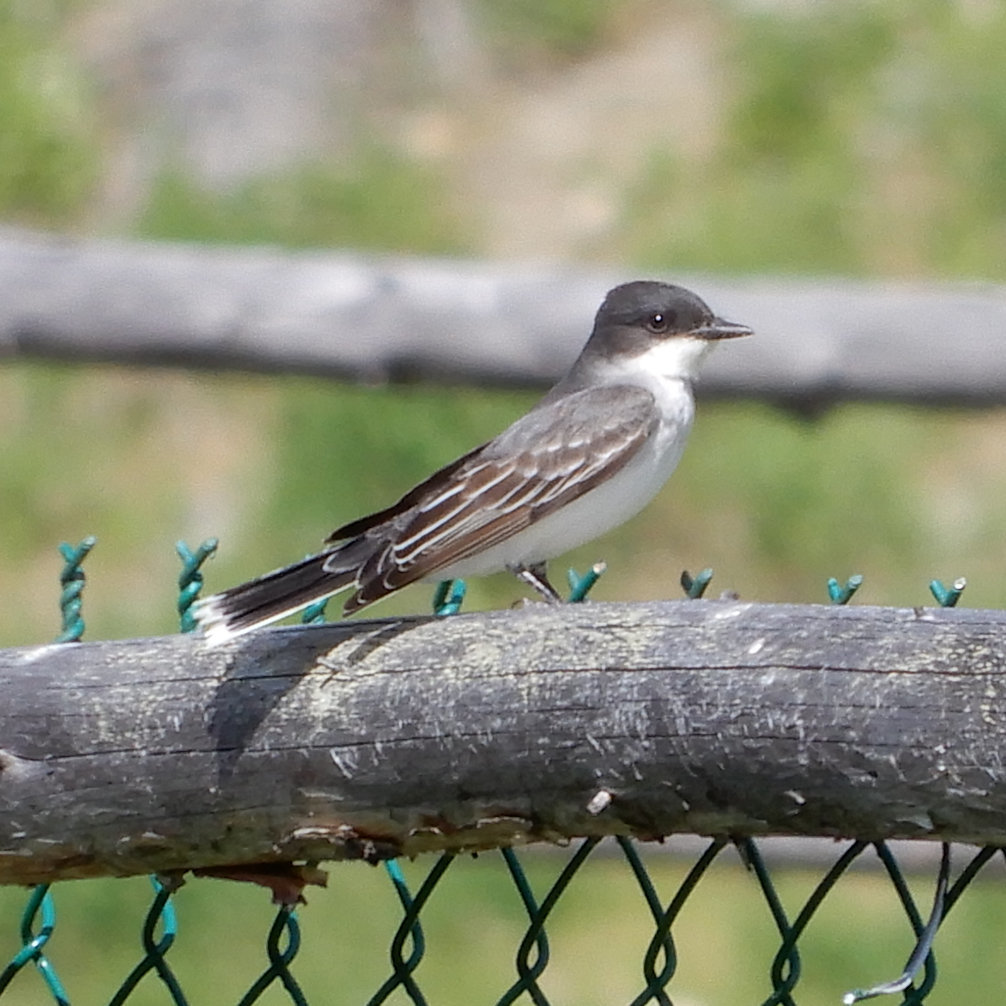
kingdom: Animalia
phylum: Chordata
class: Aves
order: Passeriformes
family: Tyrannidae
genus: Tyrannus
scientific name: Tyrannus tyrannus
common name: Eastern kingbird
